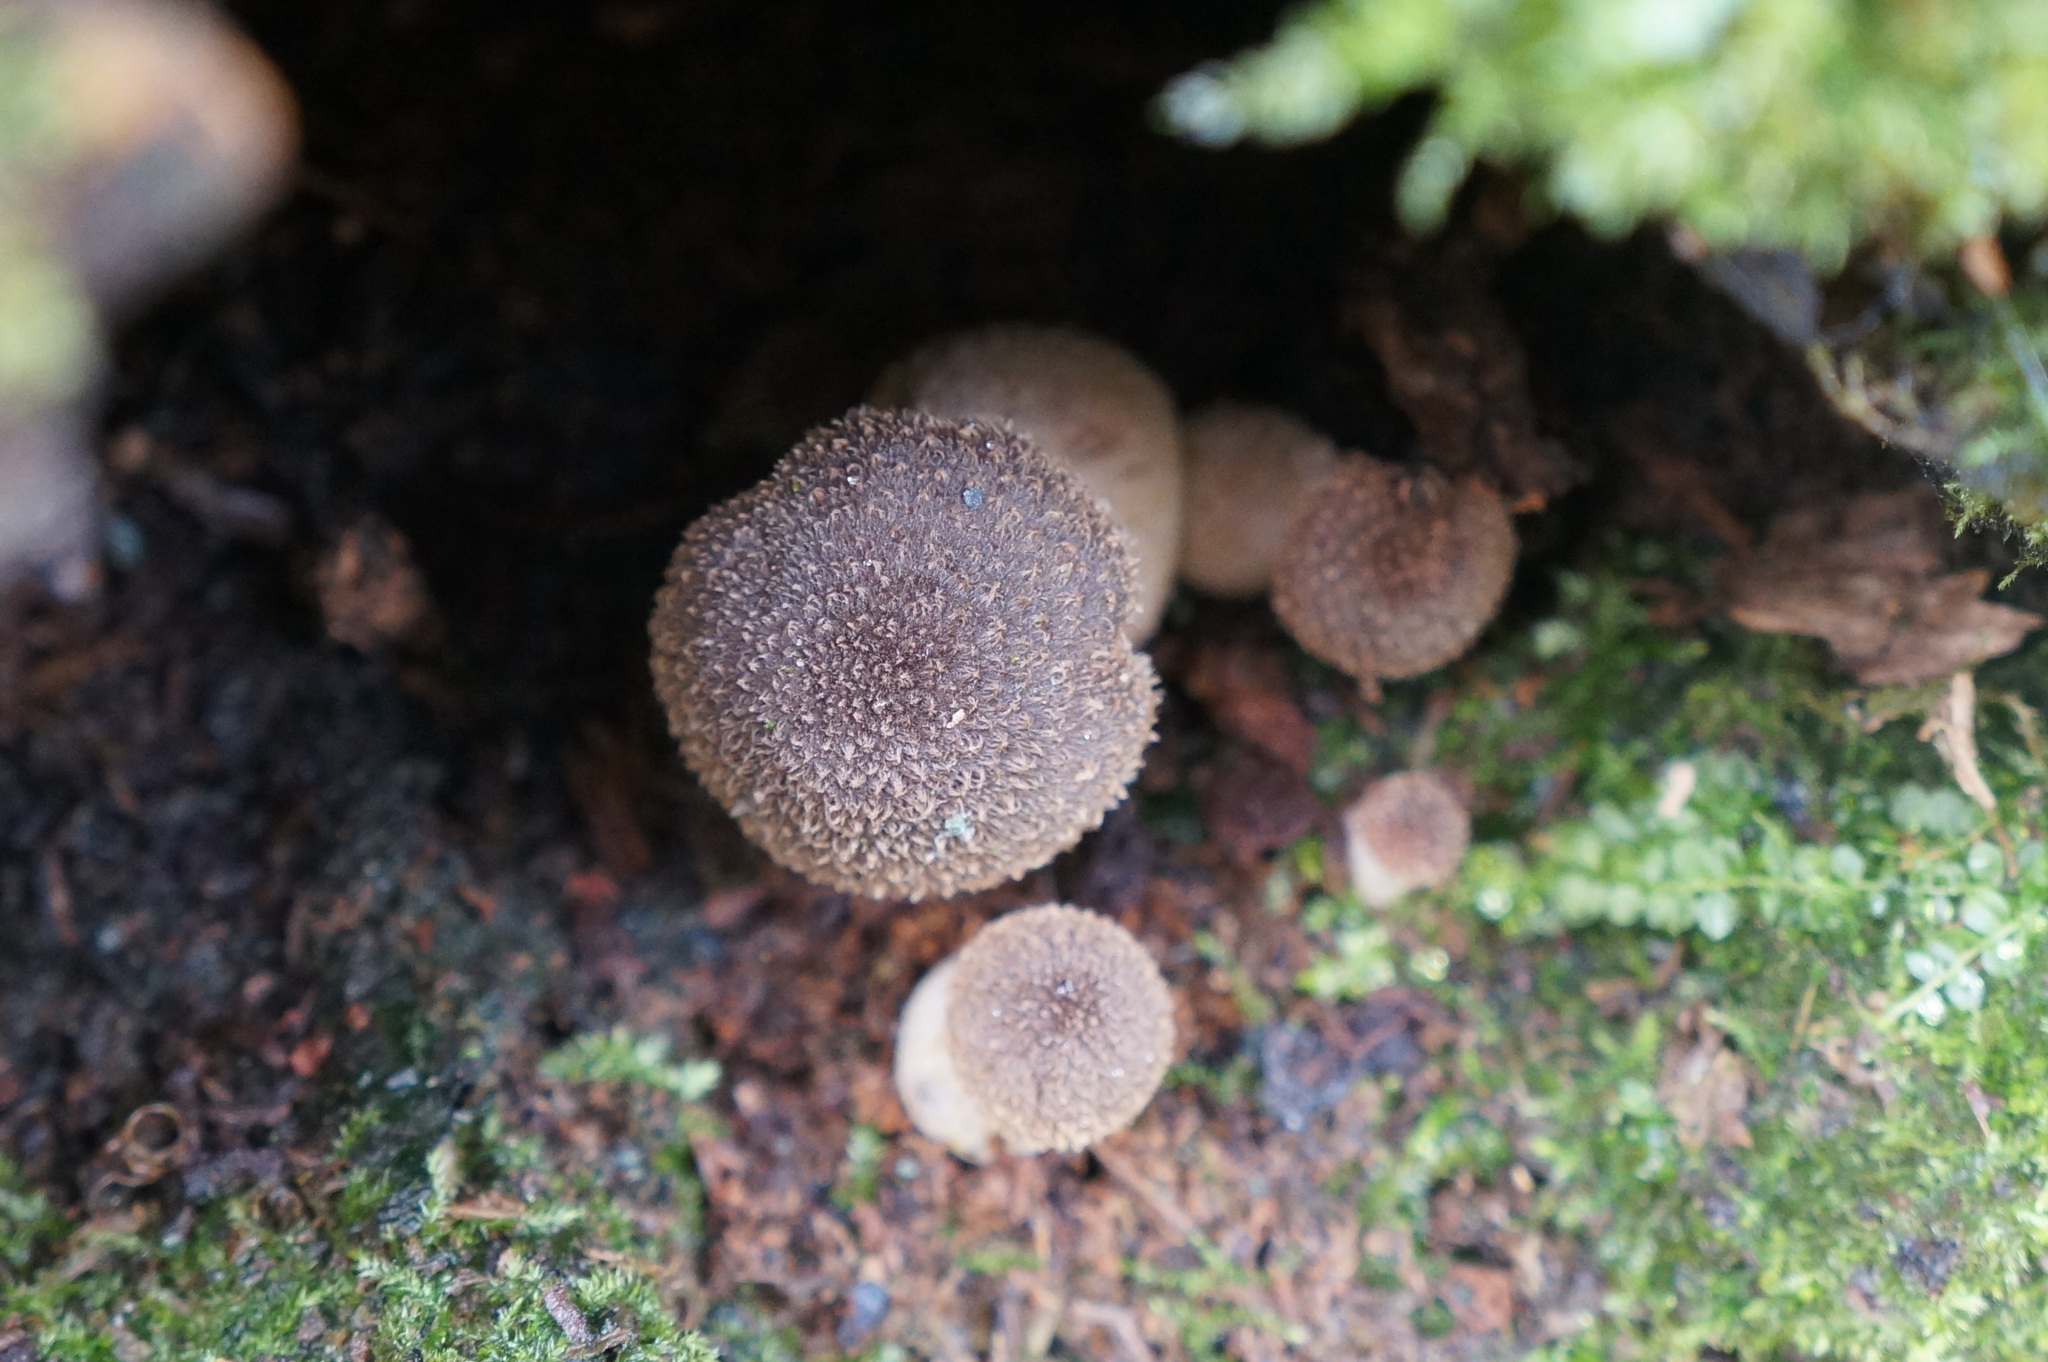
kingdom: Fungi
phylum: Basidiomycota
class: Agaricomycetes
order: Agaricales
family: Physalacriaceae
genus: Armillaria
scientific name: Armillaria mellea
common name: Honey fungus
